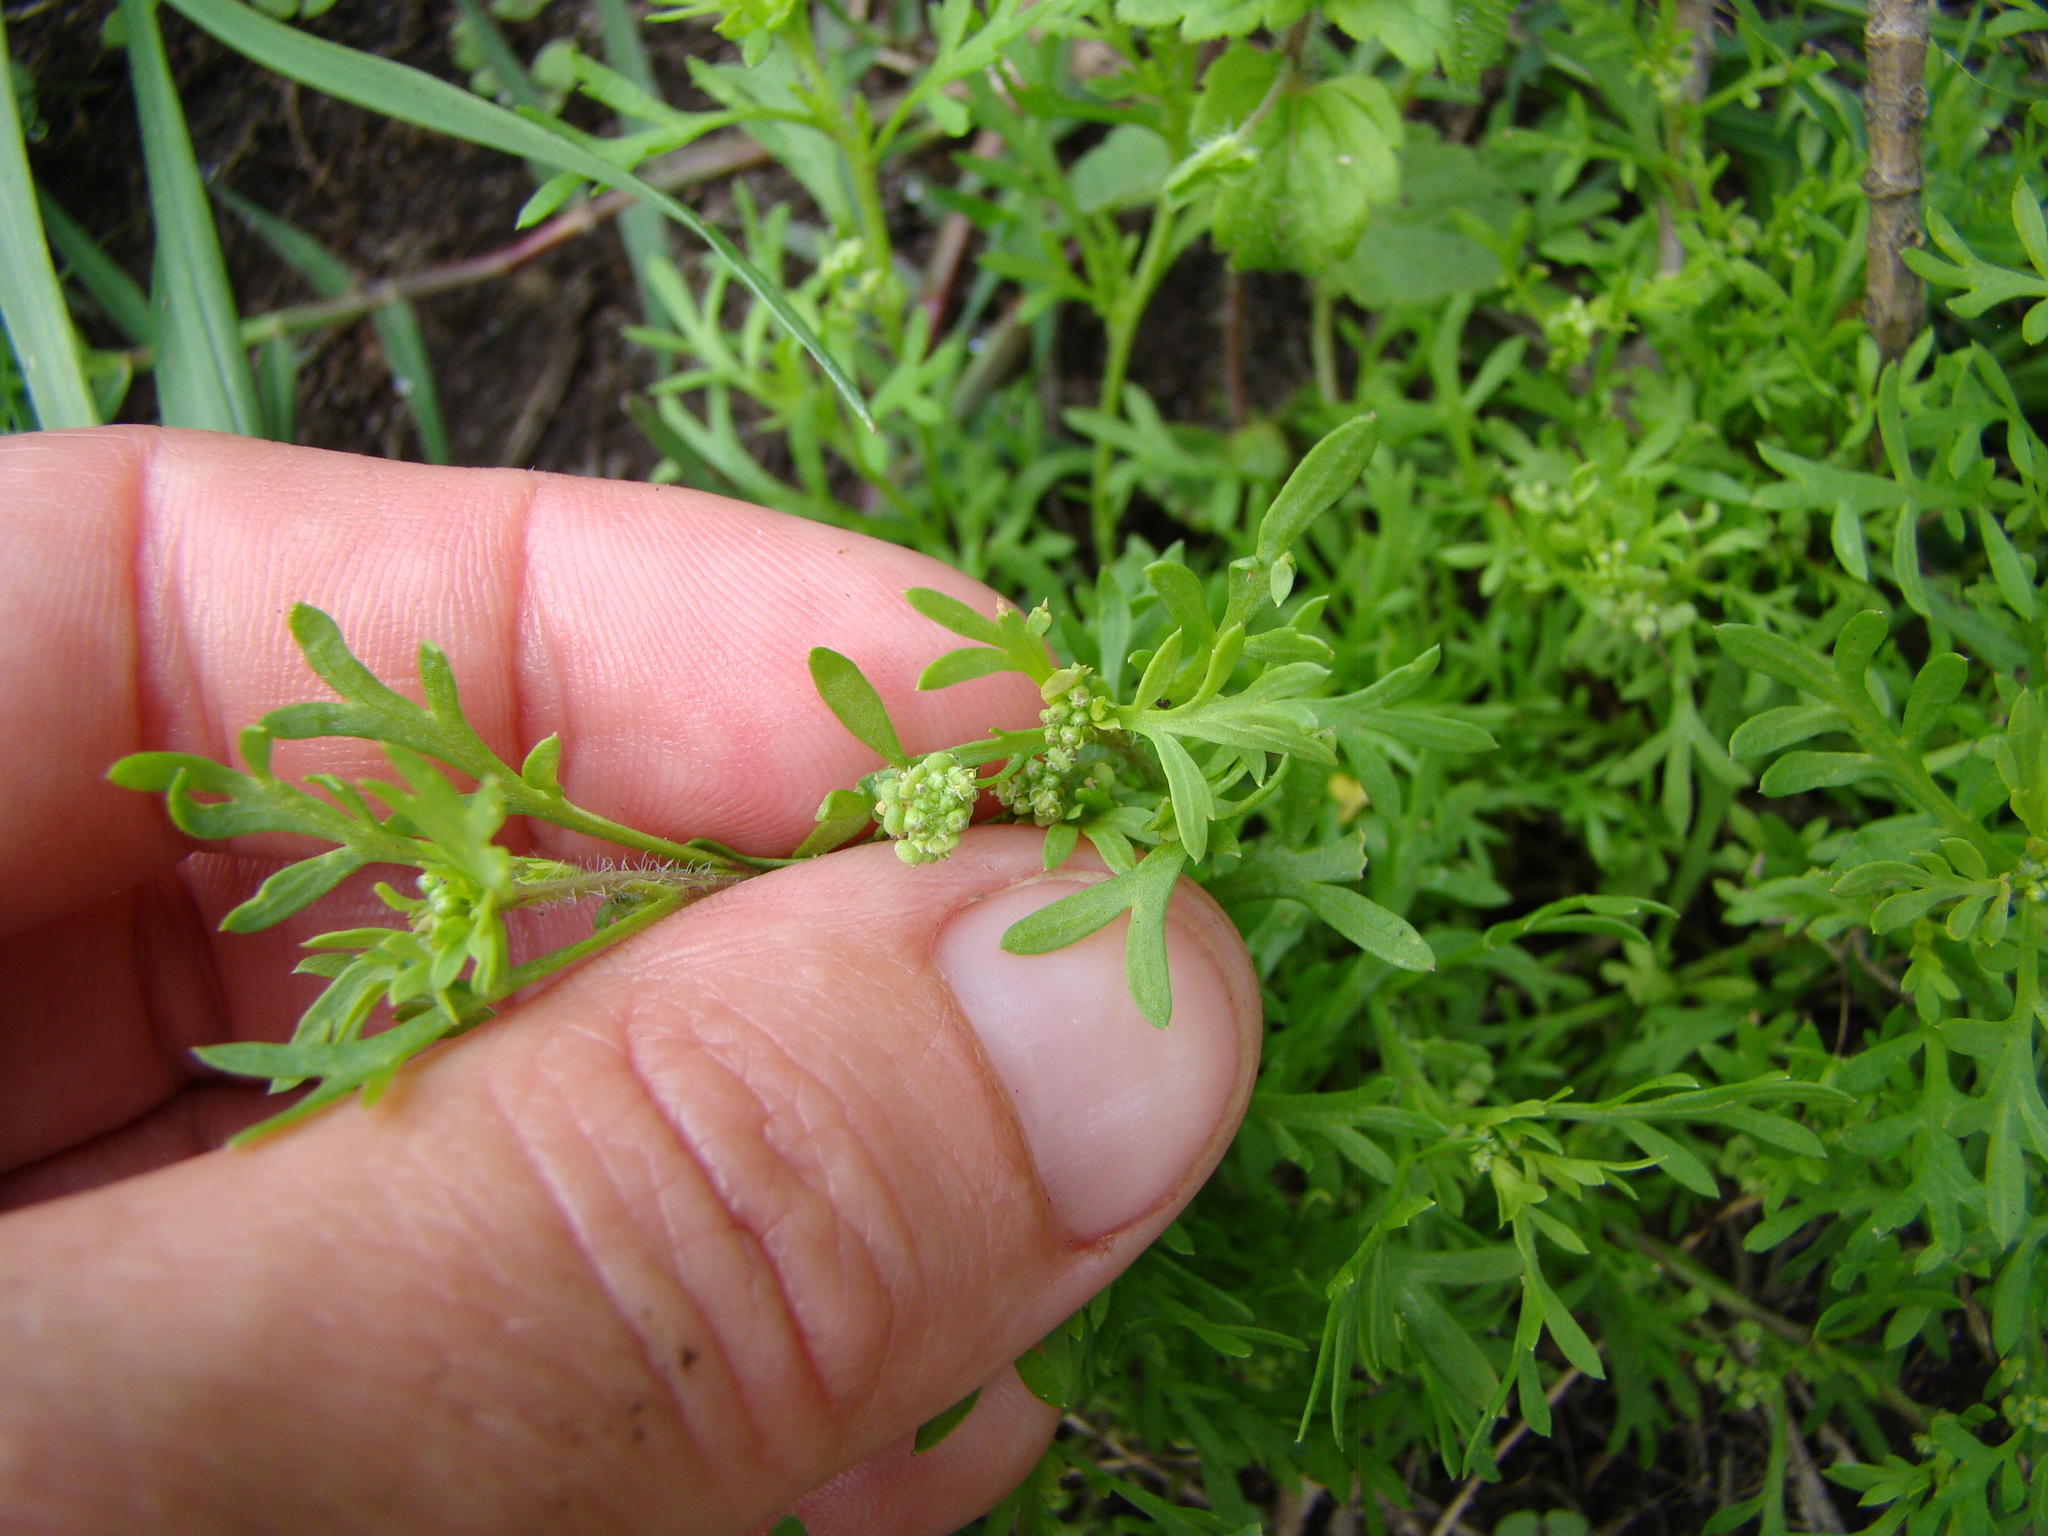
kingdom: Plantae
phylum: Tracheophyta
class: Magnoliopsida
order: Brassicales
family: Brassicaceae
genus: Lepidium
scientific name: Lepidium didymum
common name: Lesser swinecress
